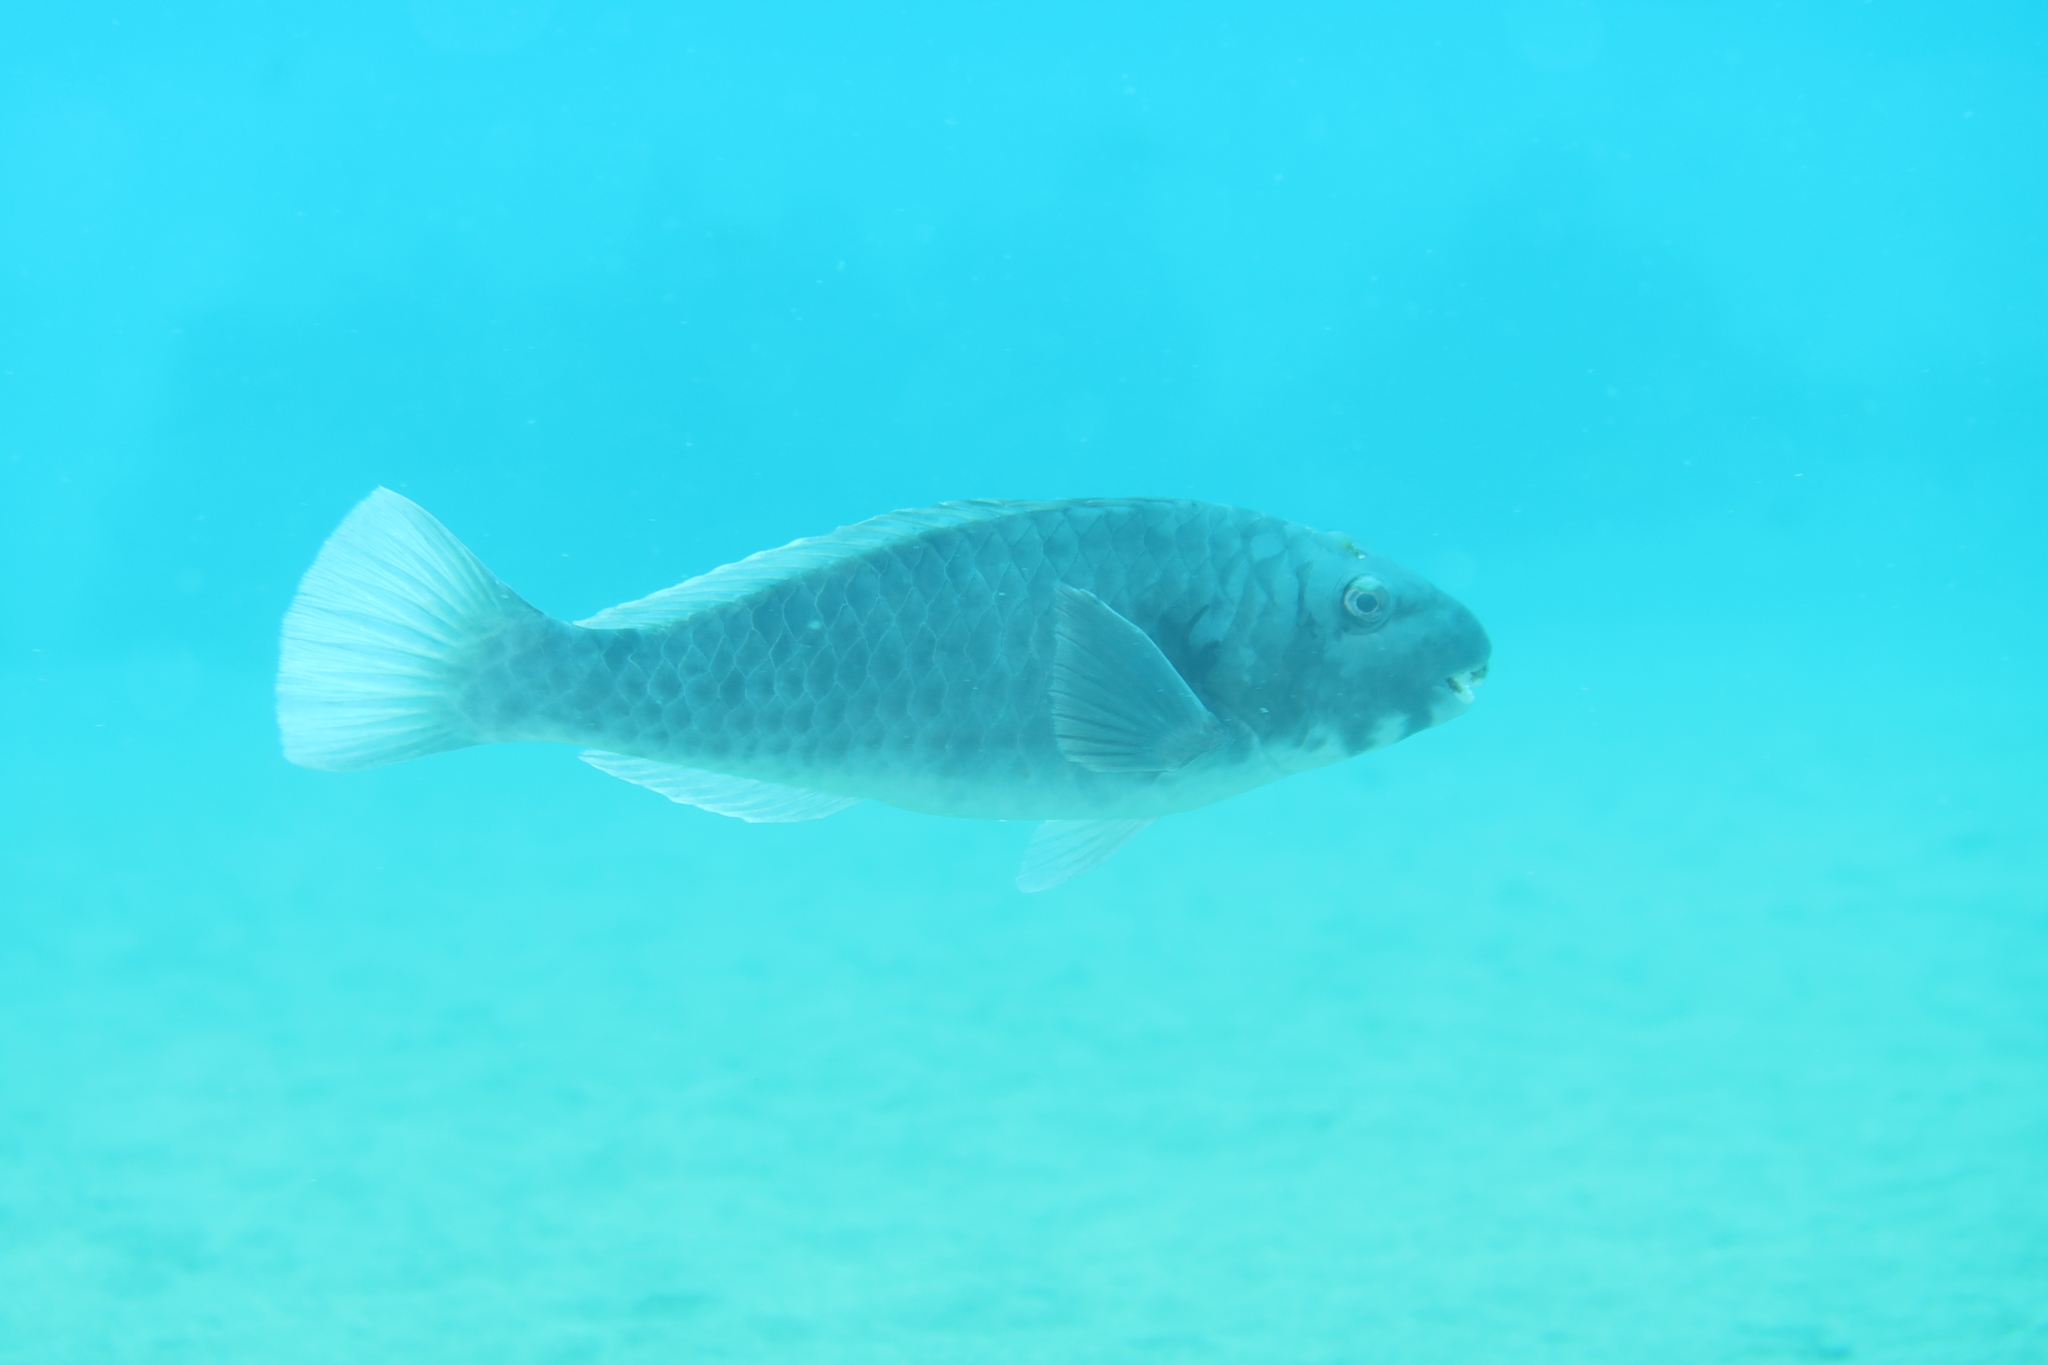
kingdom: Animalia
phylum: Chordata
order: Perciformes
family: Scaridae
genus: Sparisoma
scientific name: Sparisoma cretense
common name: Parrotfish
